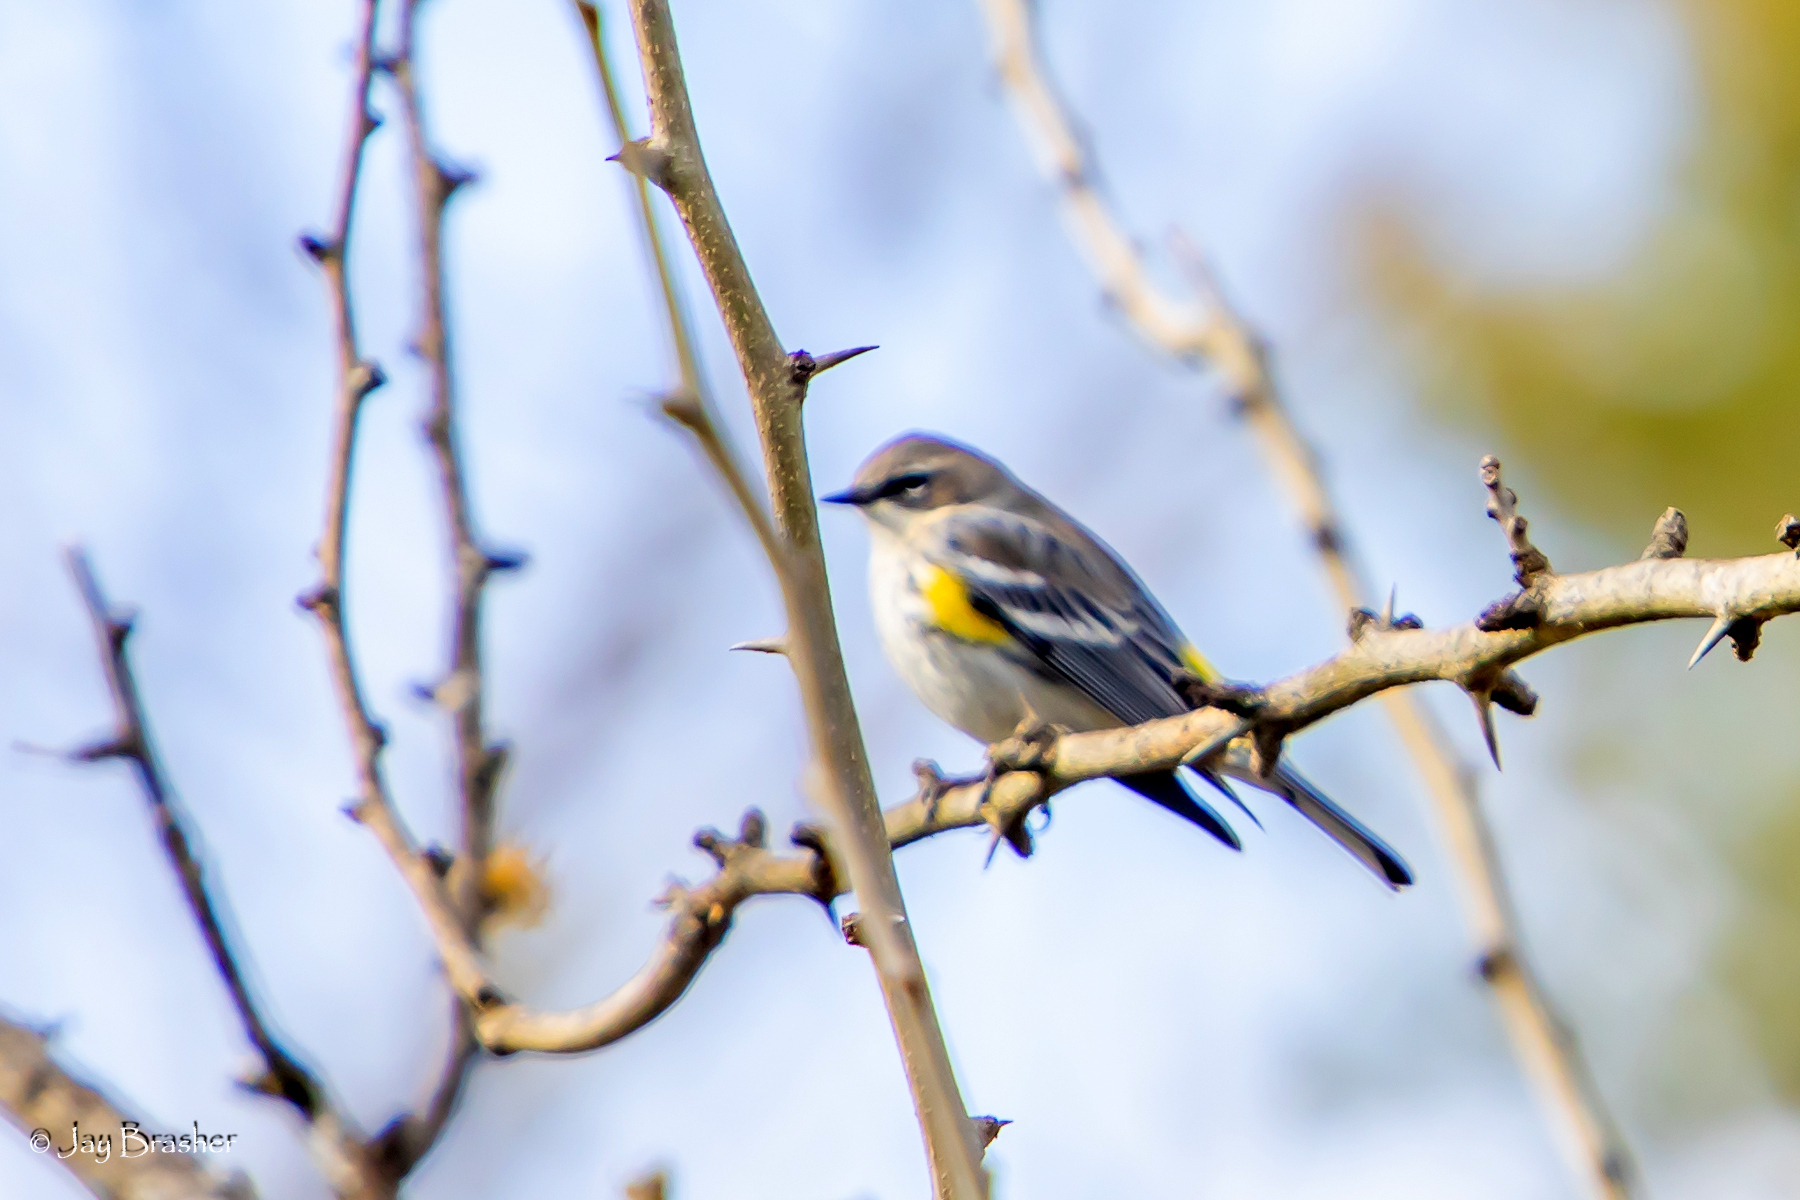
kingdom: Animalia
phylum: Chordata
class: Aves
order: Passeriformes
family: Parulidae
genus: Setophaga
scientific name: Setophaga coronata
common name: Myrtle warbler
